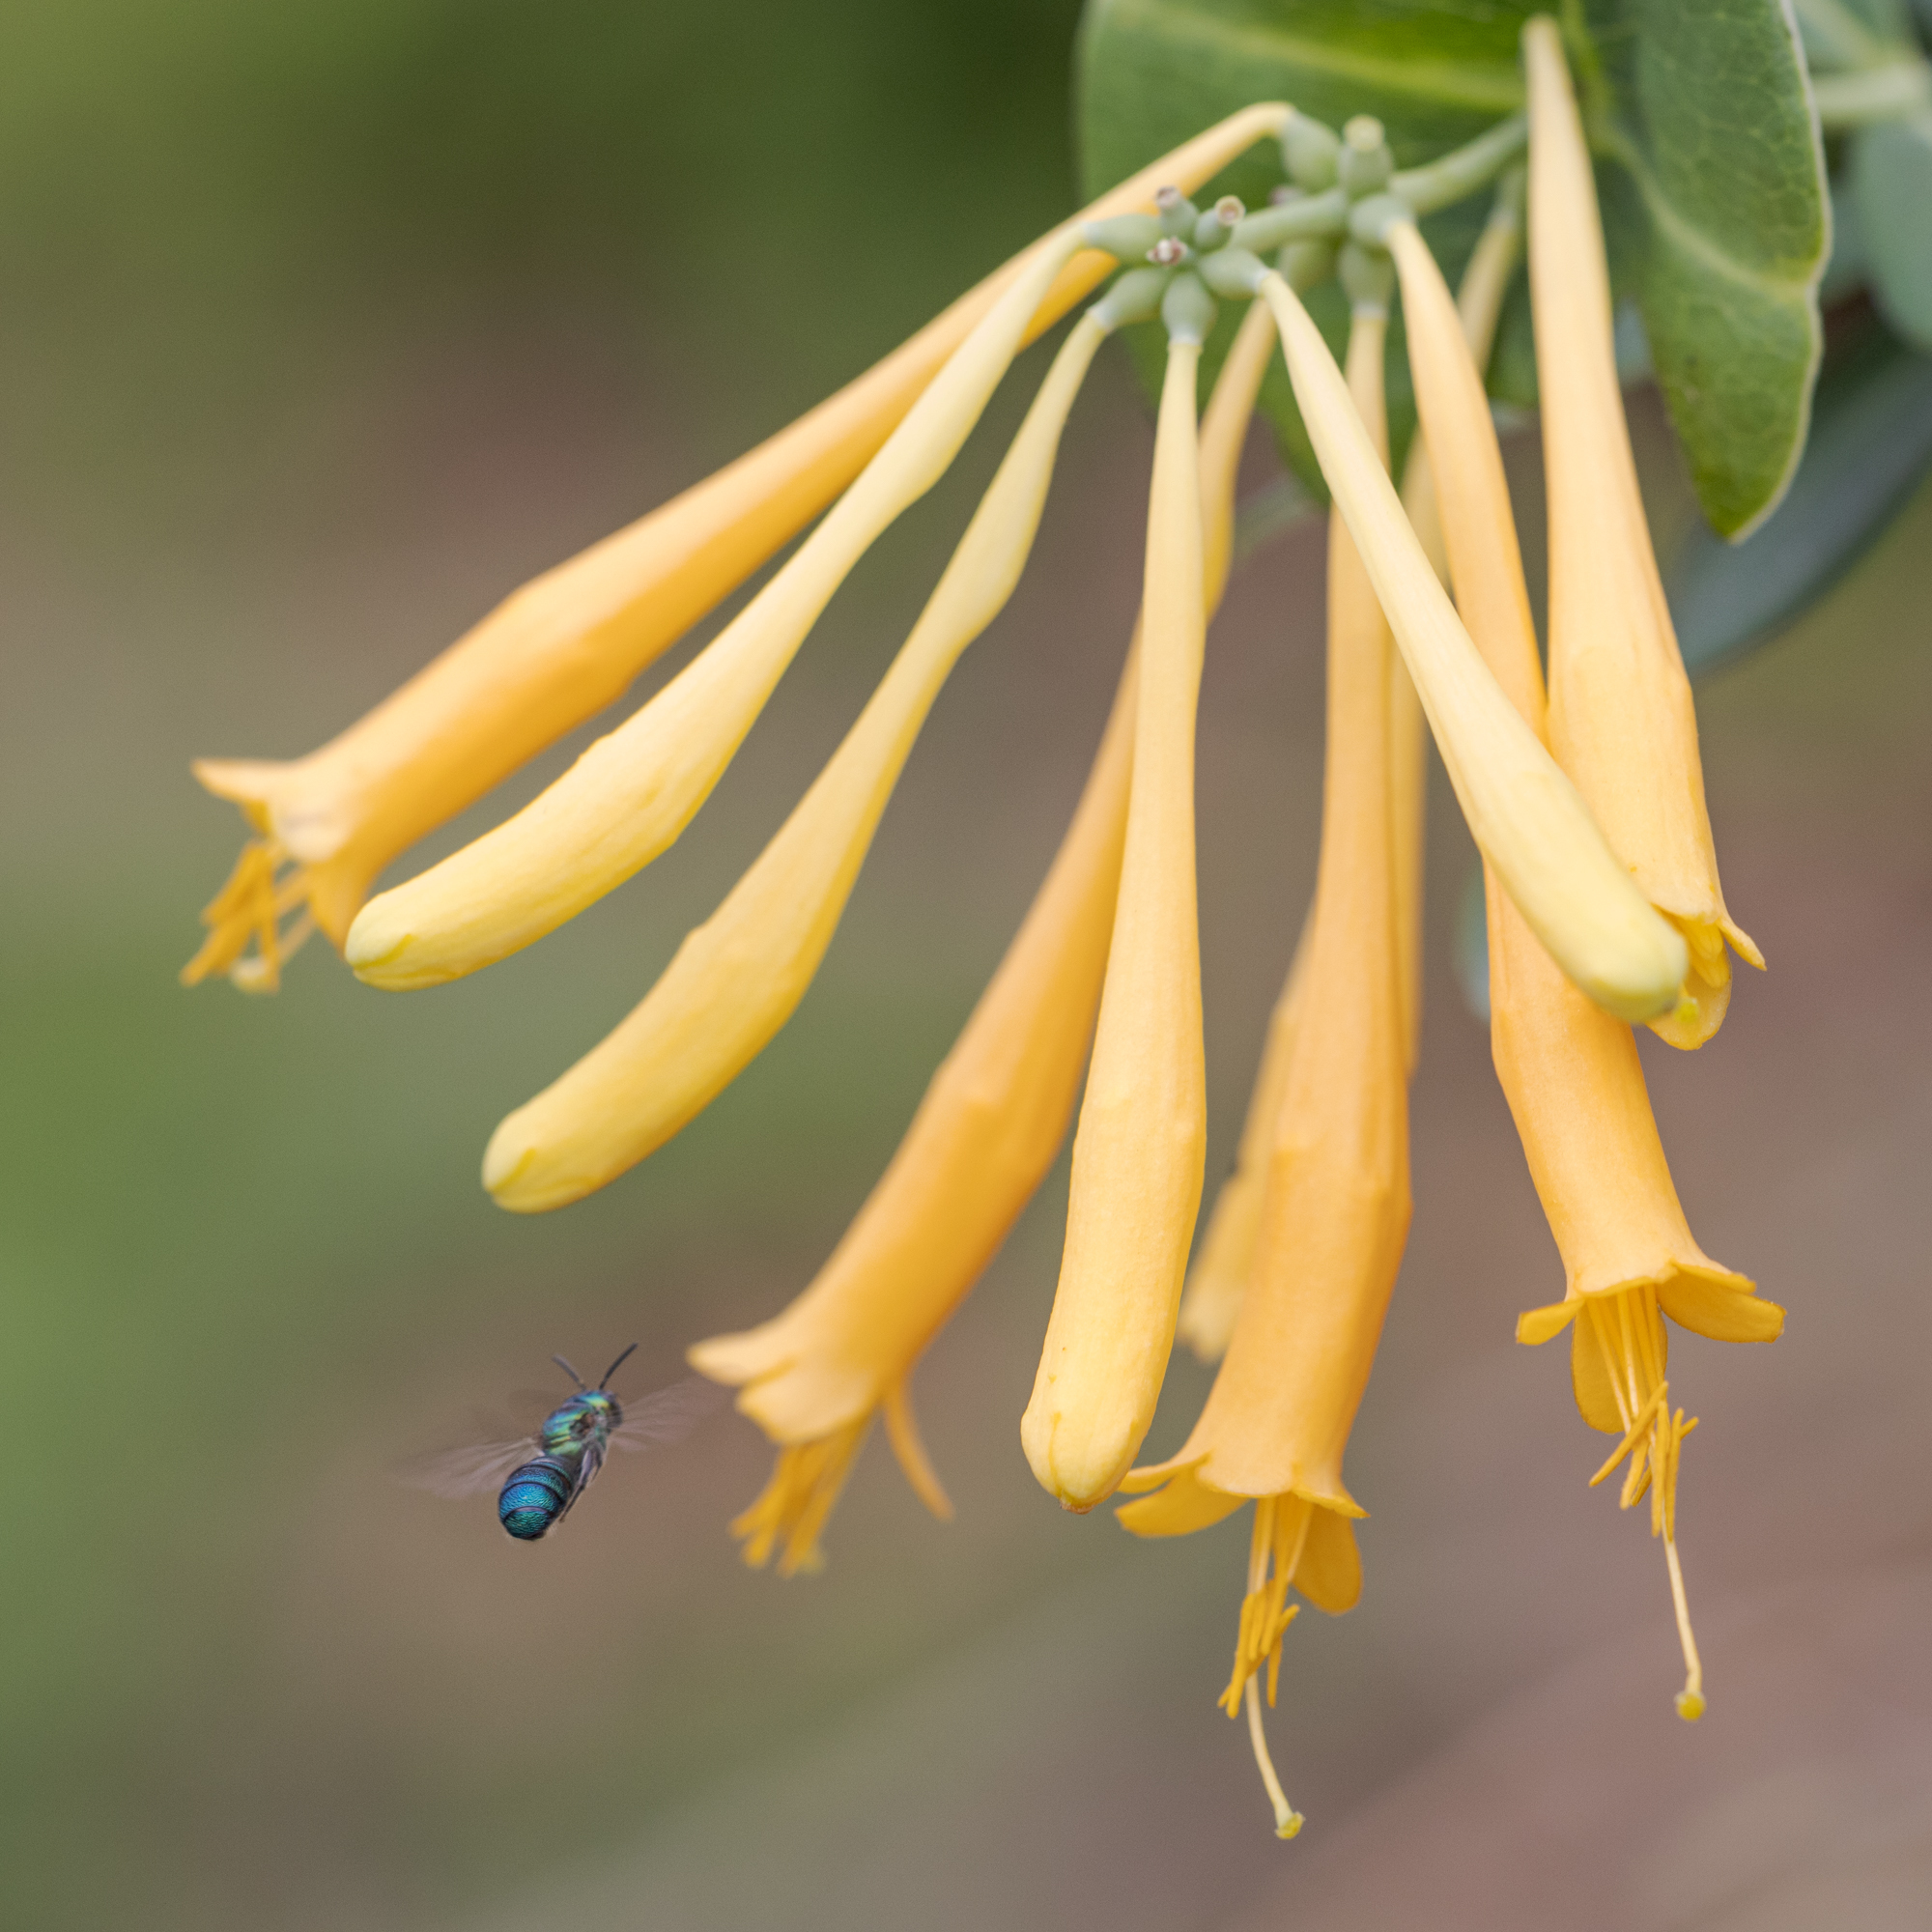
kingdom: Animalia
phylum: Arthropoda
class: Insecta
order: Hymenoptera
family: Apidae
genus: Ceratina
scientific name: Ceratina cobaltina
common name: Small carpenter bee
